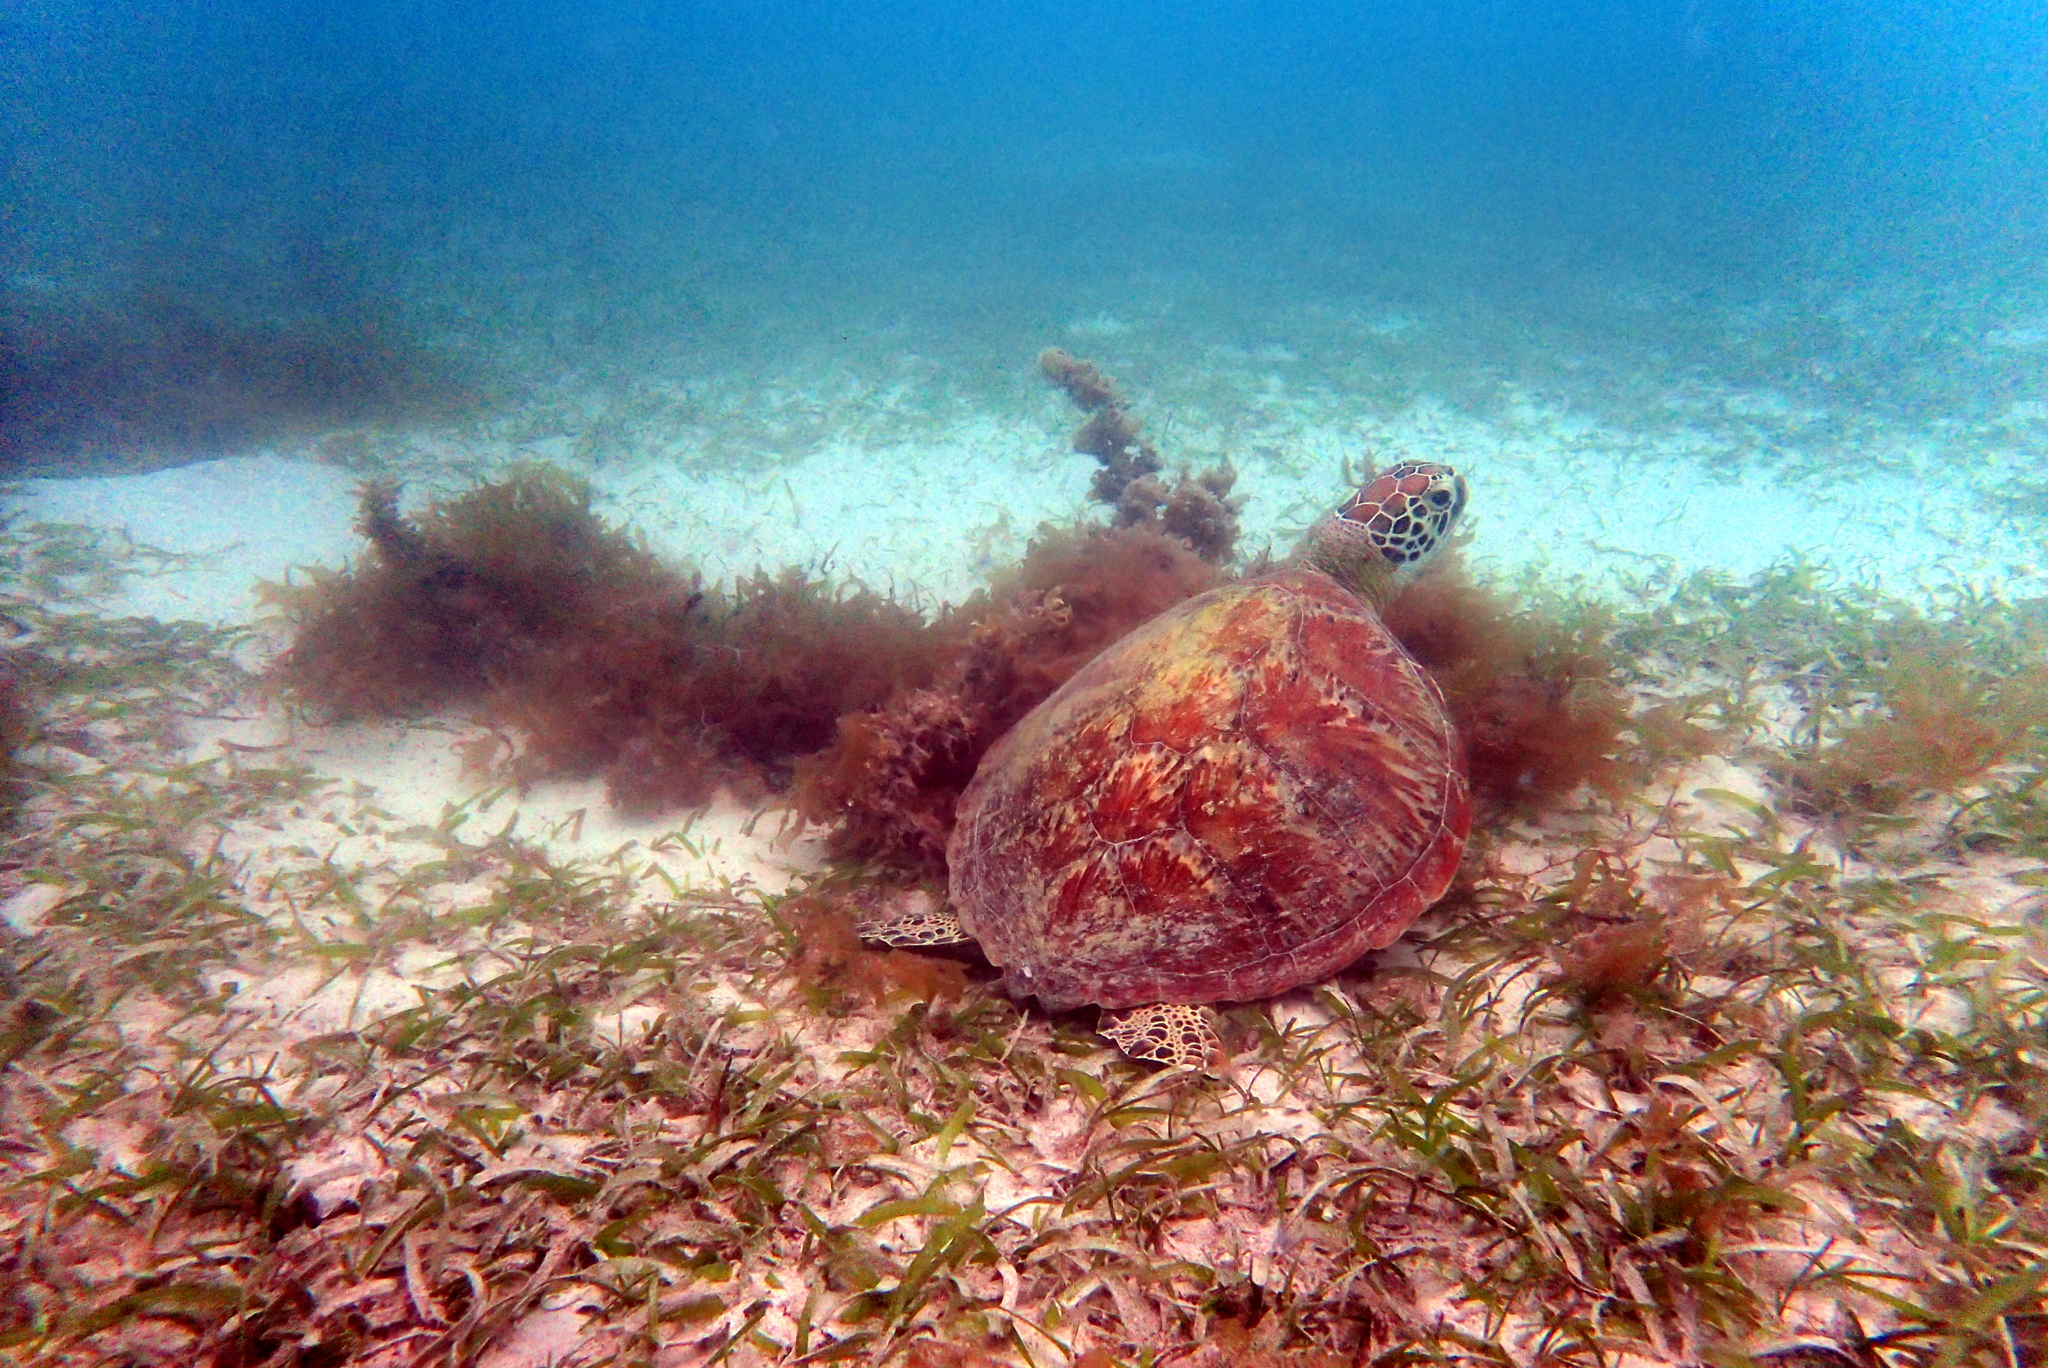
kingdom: Animalia
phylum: Chordata
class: Testudines
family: Cheloniidae
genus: Chelonia
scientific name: Chelonia mydas
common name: Green turtle
